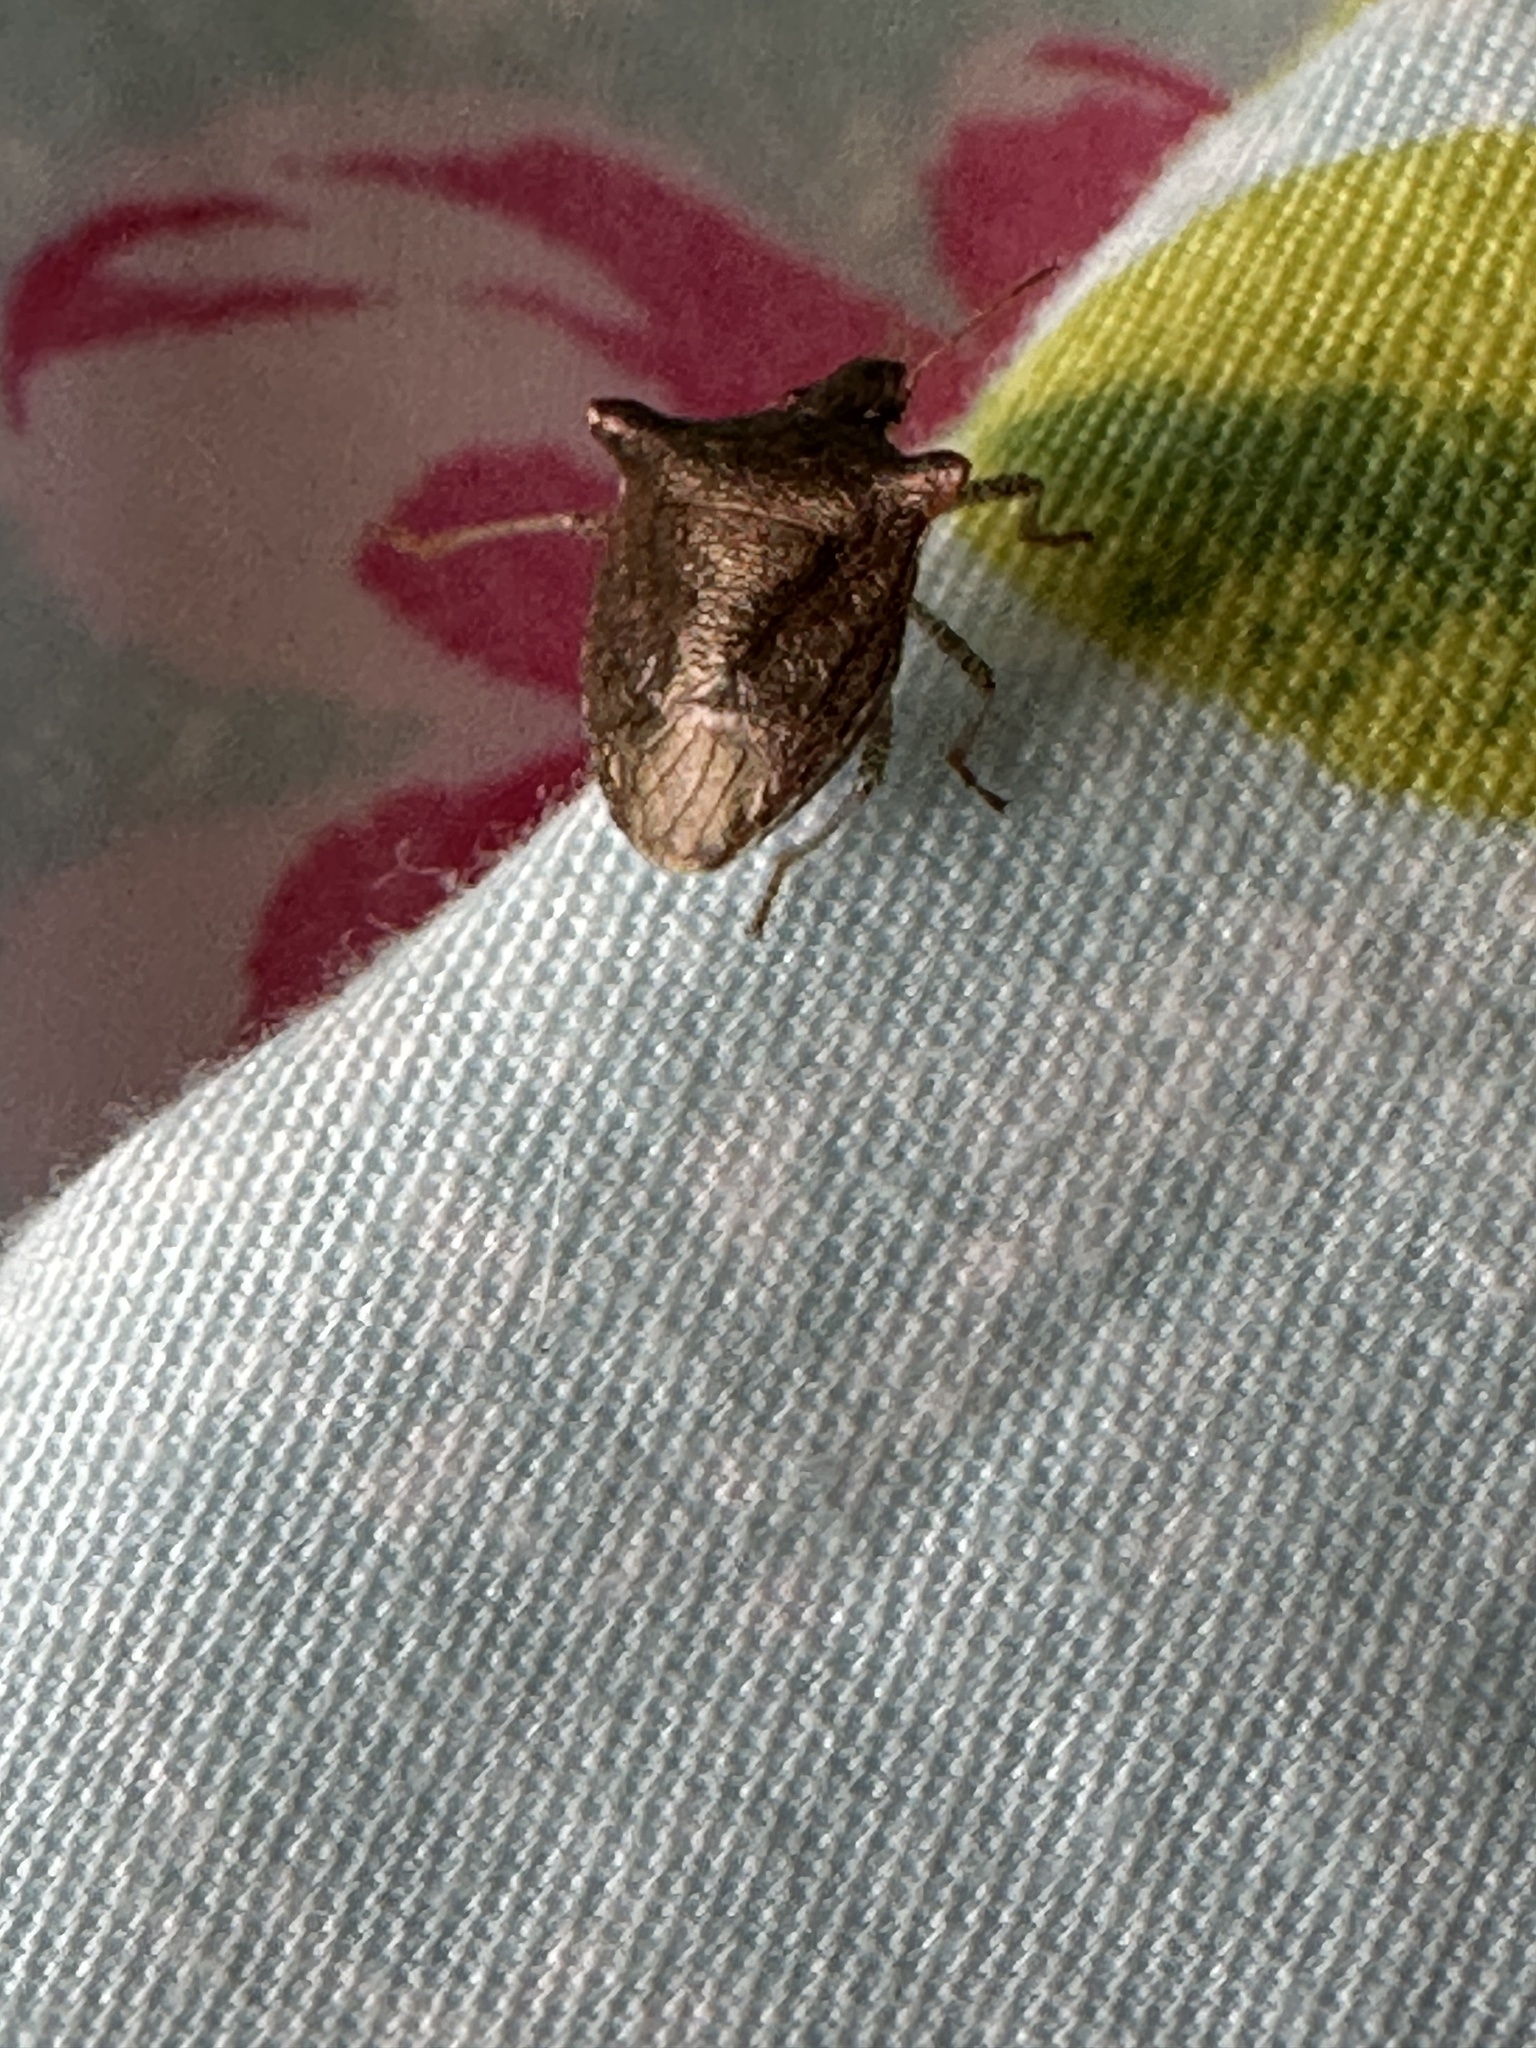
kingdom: Animalia
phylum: Arthropoda
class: Insecta
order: Hemiptera
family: Pentatomidae
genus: Carbula
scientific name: Carbula crassiventris
